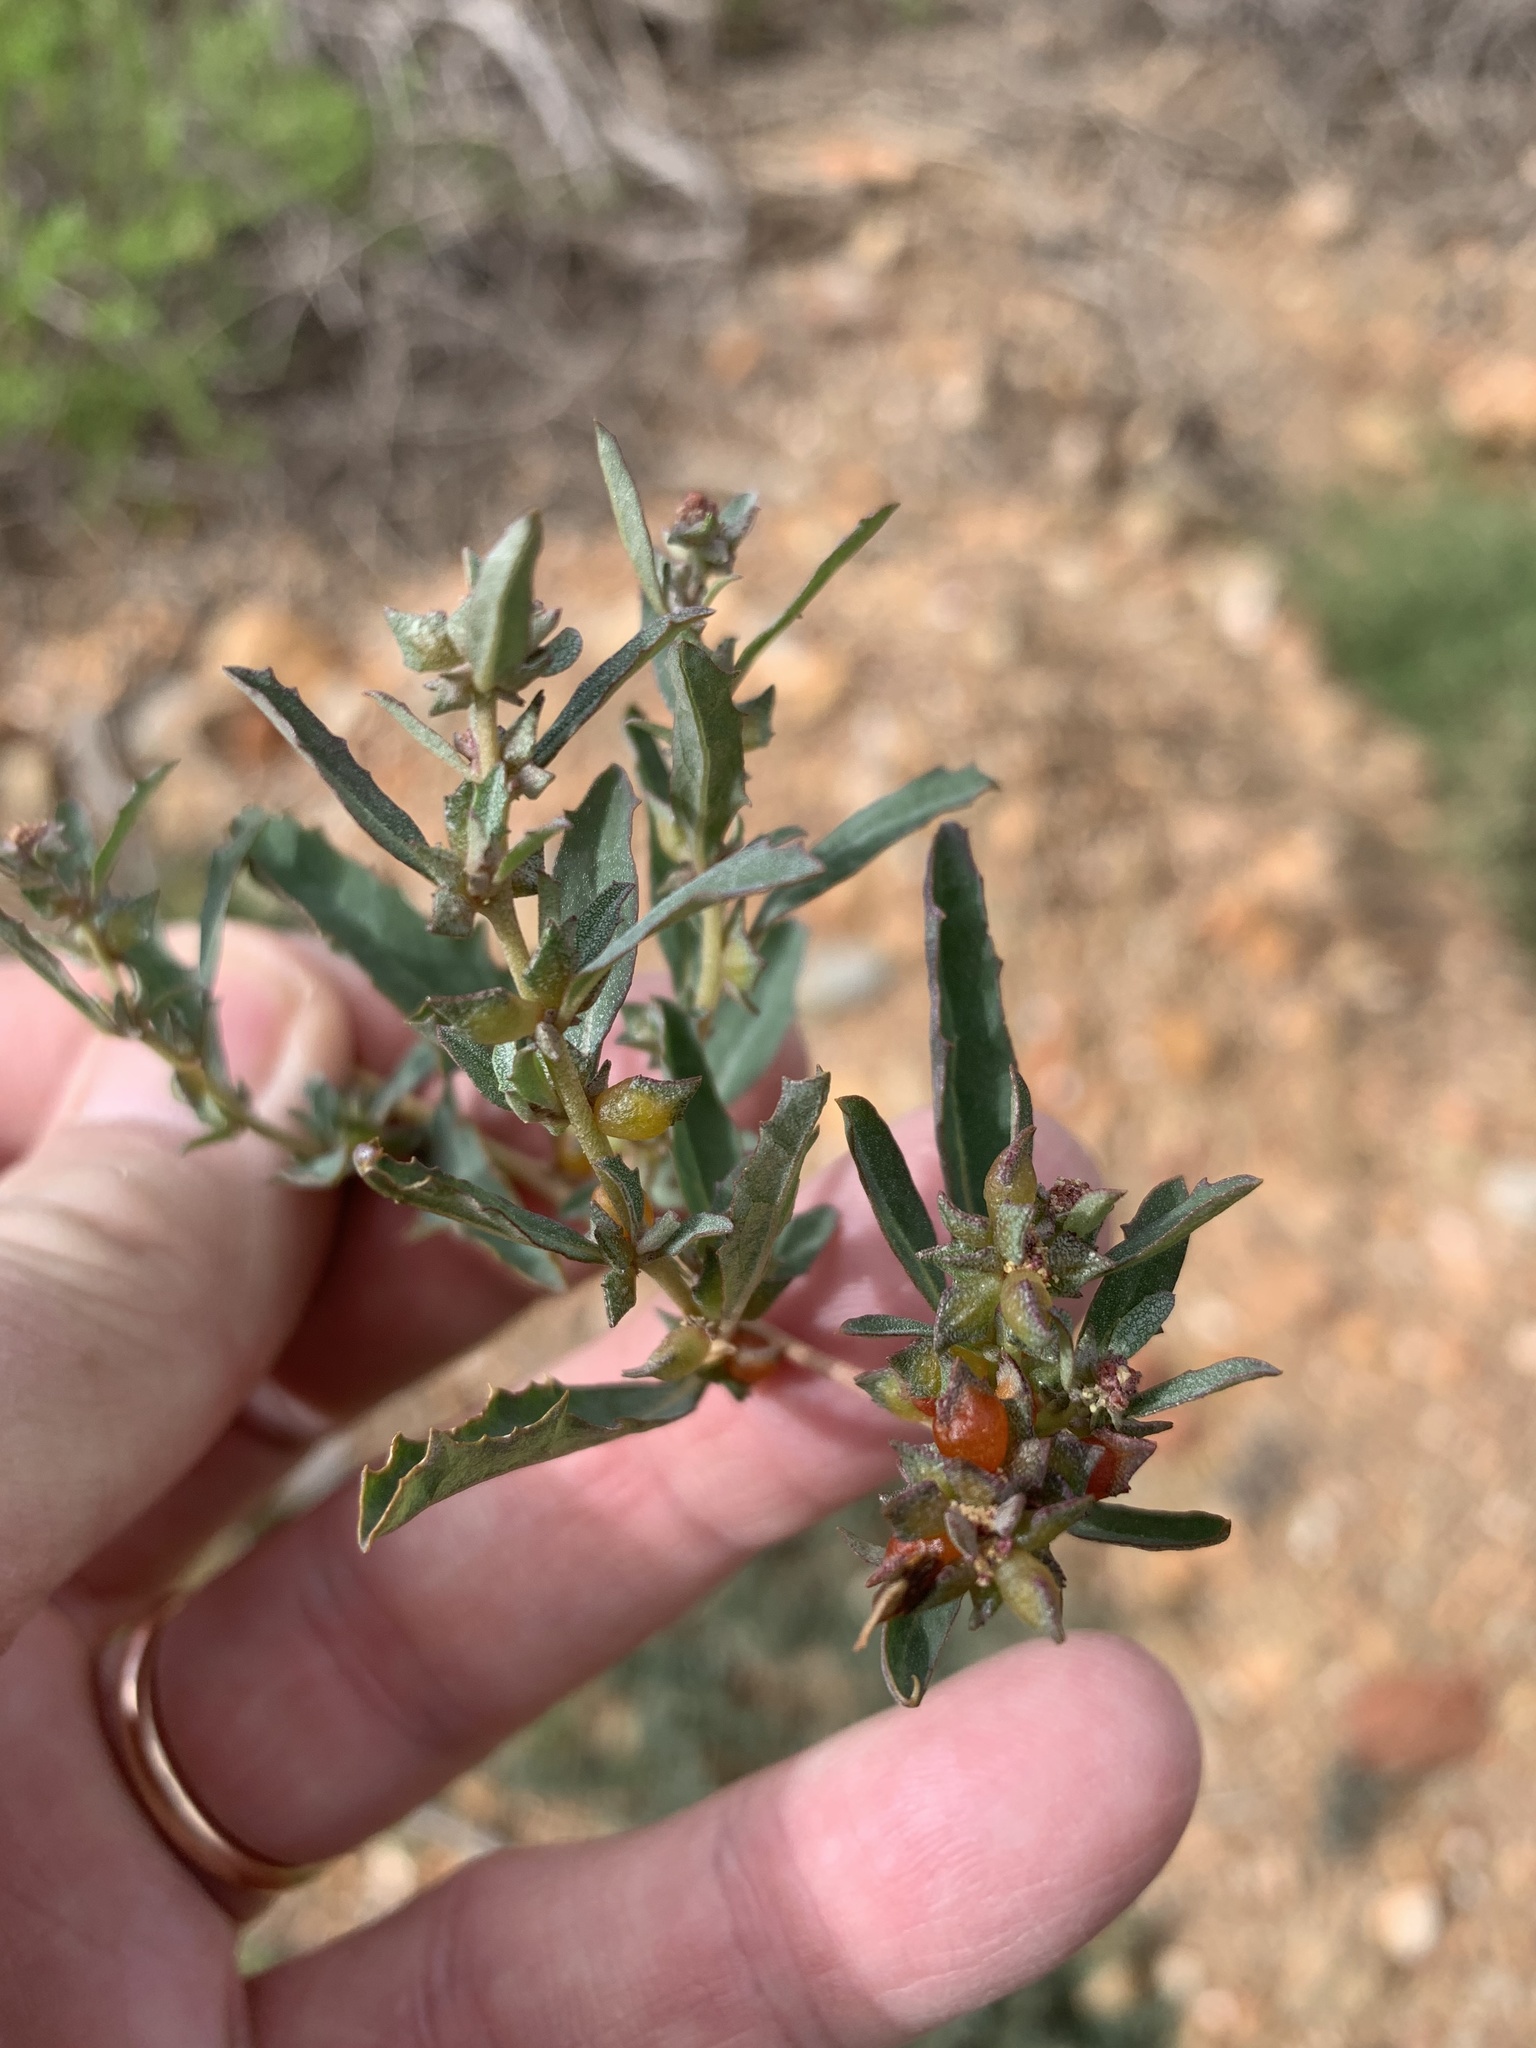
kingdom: Plantae
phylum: Tracheophyta
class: Magnoliopsida
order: Caryophyllales
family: Amaranthaceae
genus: Atriplex
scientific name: Atriplex semibaccata
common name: Australian saltbush
